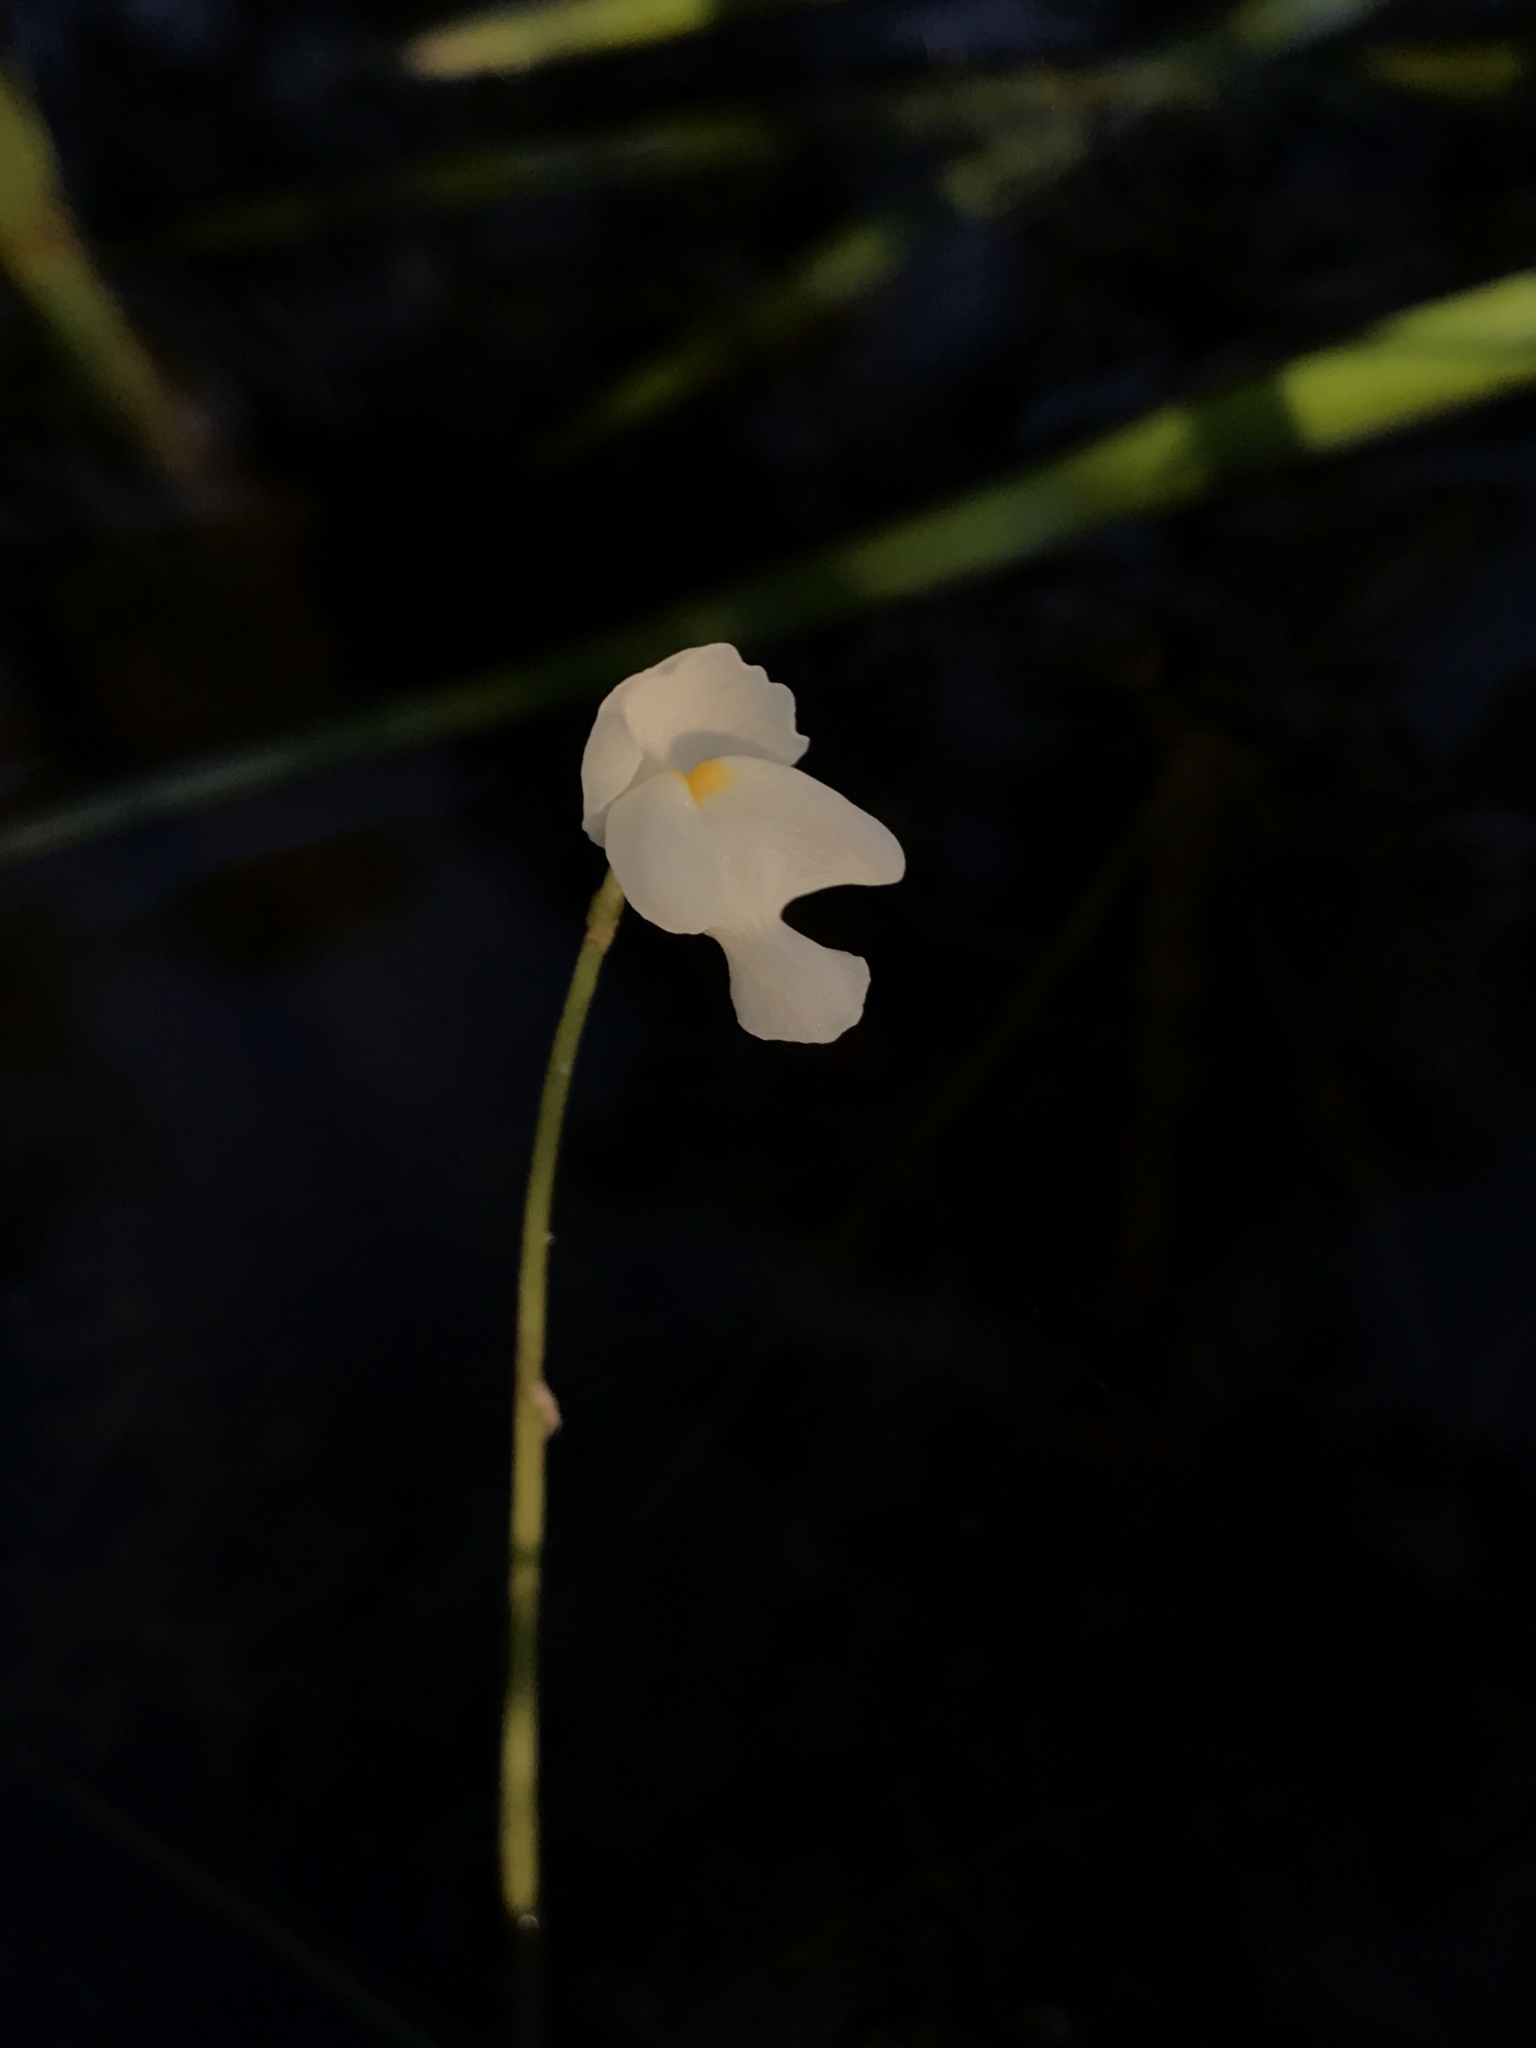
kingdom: Plantae
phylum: Tracheophyta
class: Magnoliopsida
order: Lamiales
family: Lentibulariaceae
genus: Utricularia
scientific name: Utricularia purpurea
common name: Eastern purple bladderwort
